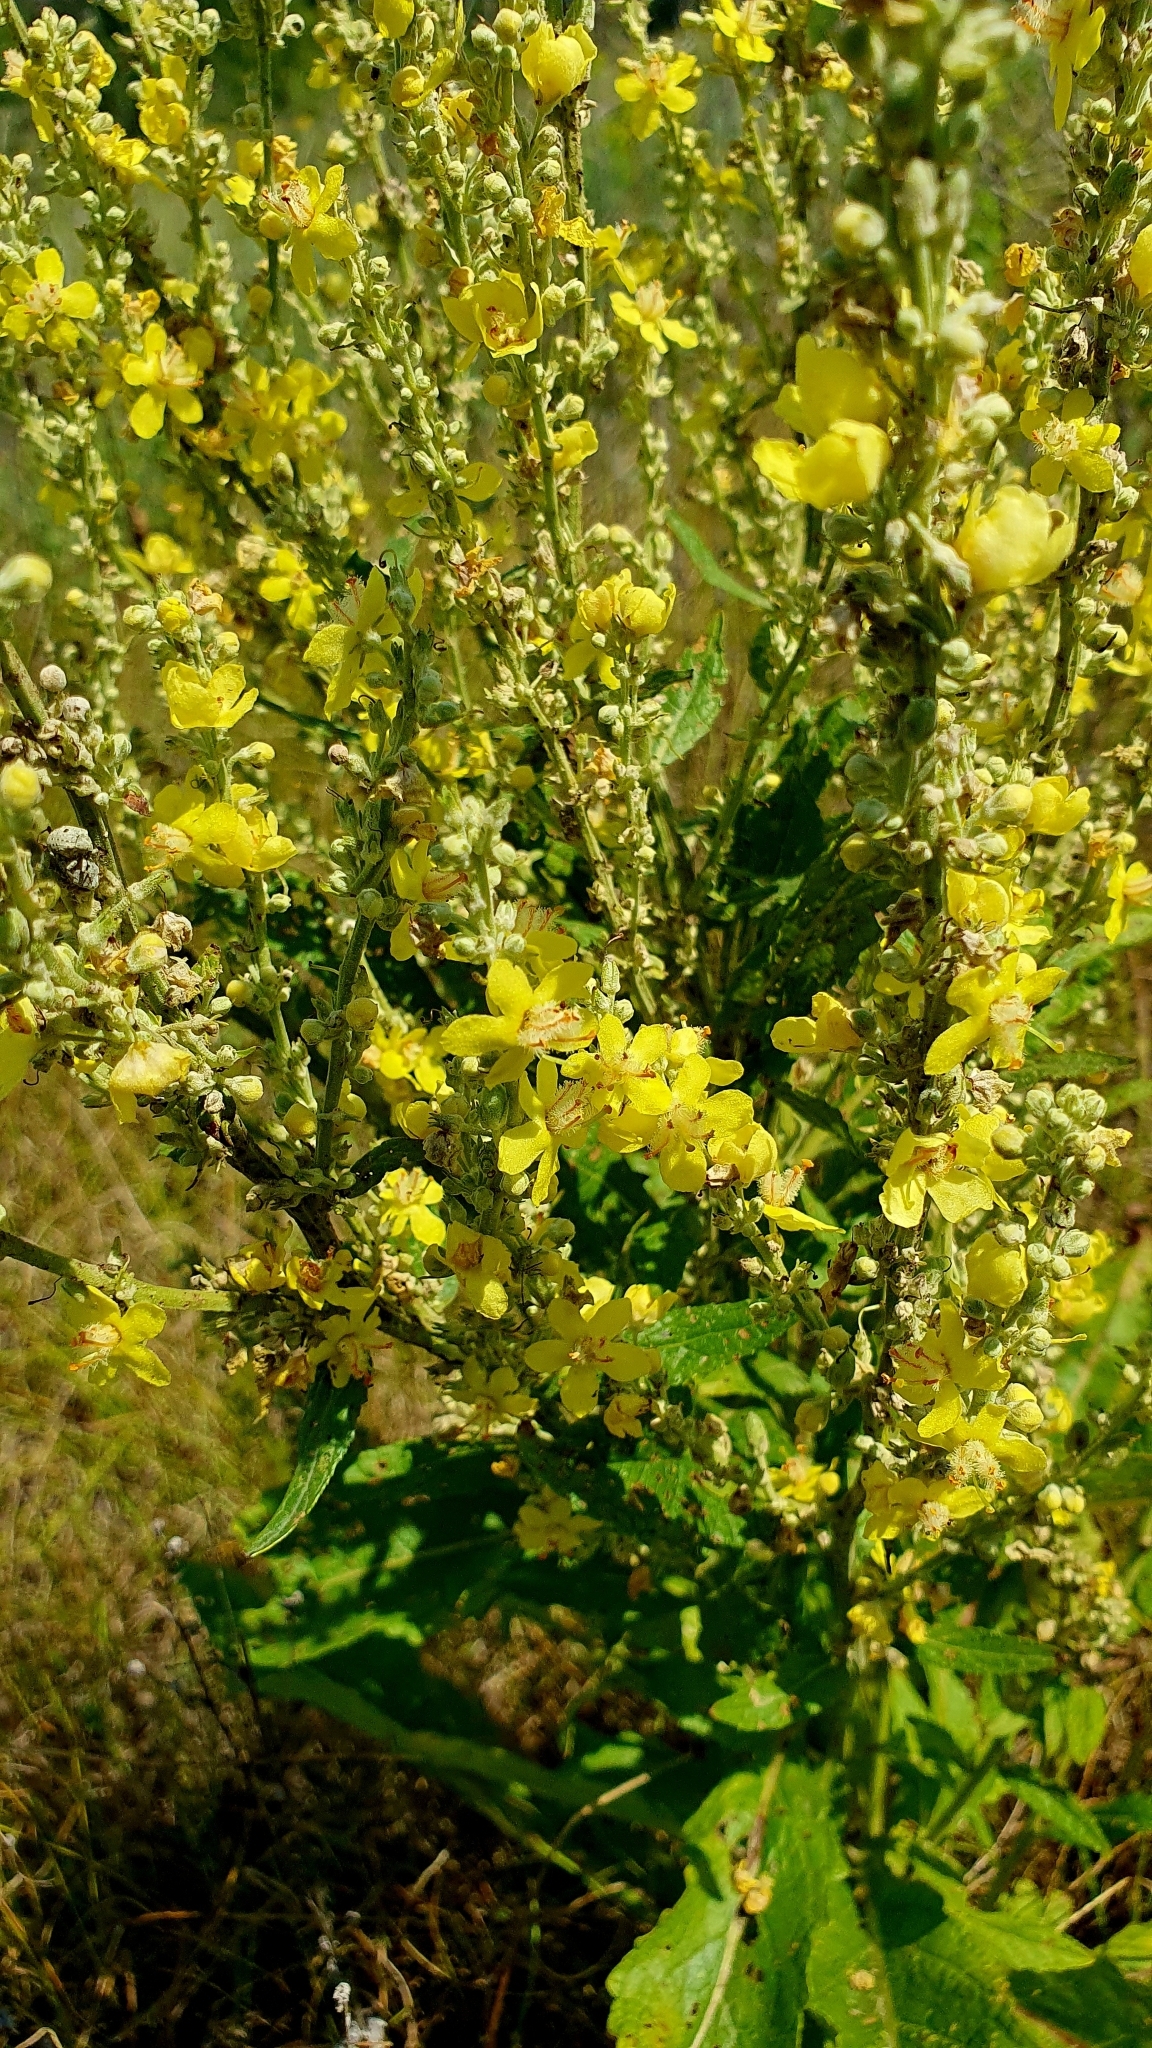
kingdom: Plantae
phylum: Tracheophyta
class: Magnoliopsida
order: Lamiales
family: Scrophulariaceae
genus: Verbascum
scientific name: Verbascum lychnitis
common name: White mullein
